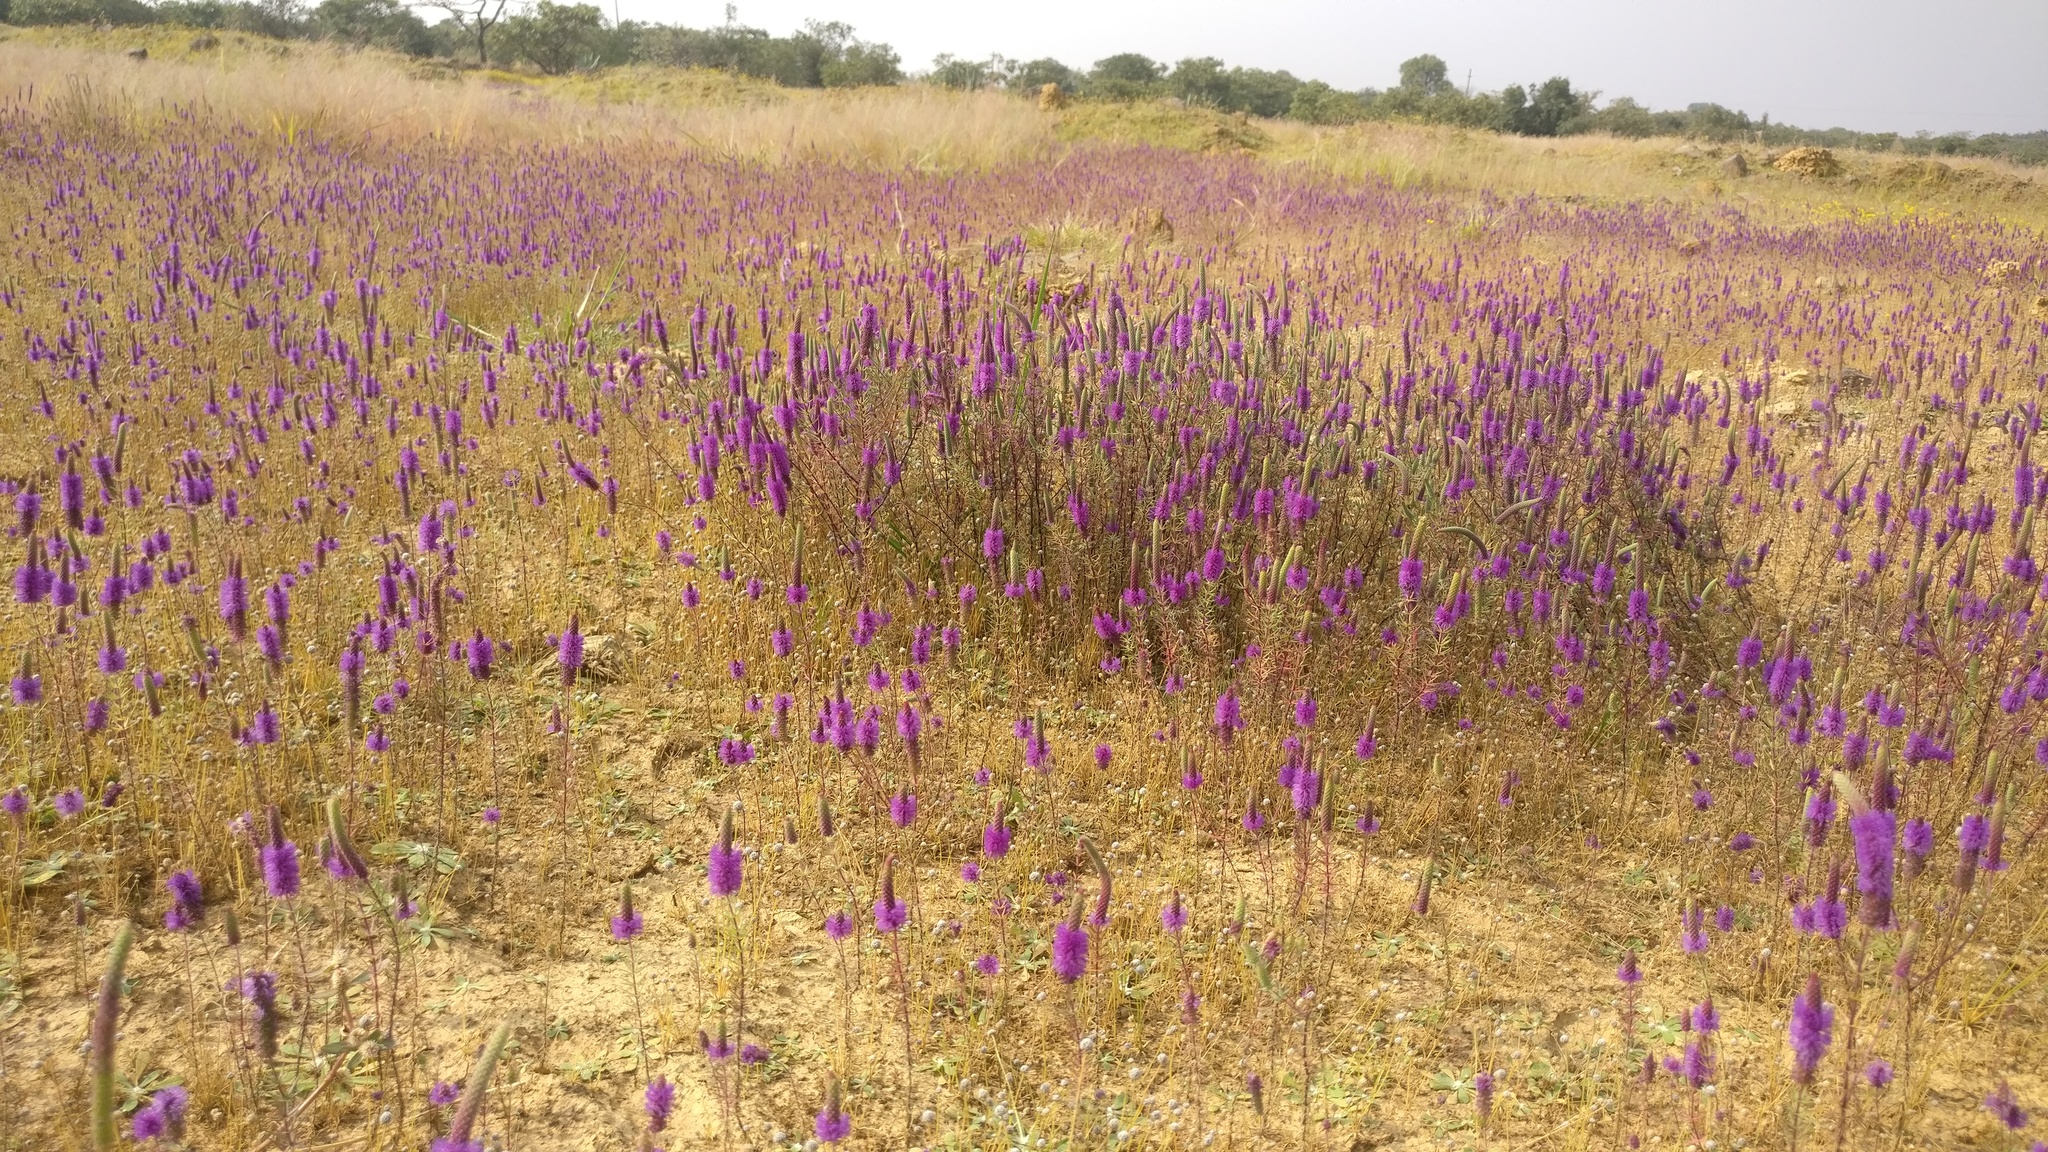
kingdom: Plantae
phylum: Tracheophyta
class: Magnoliopsida
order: Lamiales
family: Lamiaceae
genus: Pogostemon
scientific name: Pogostemon deccanensis
